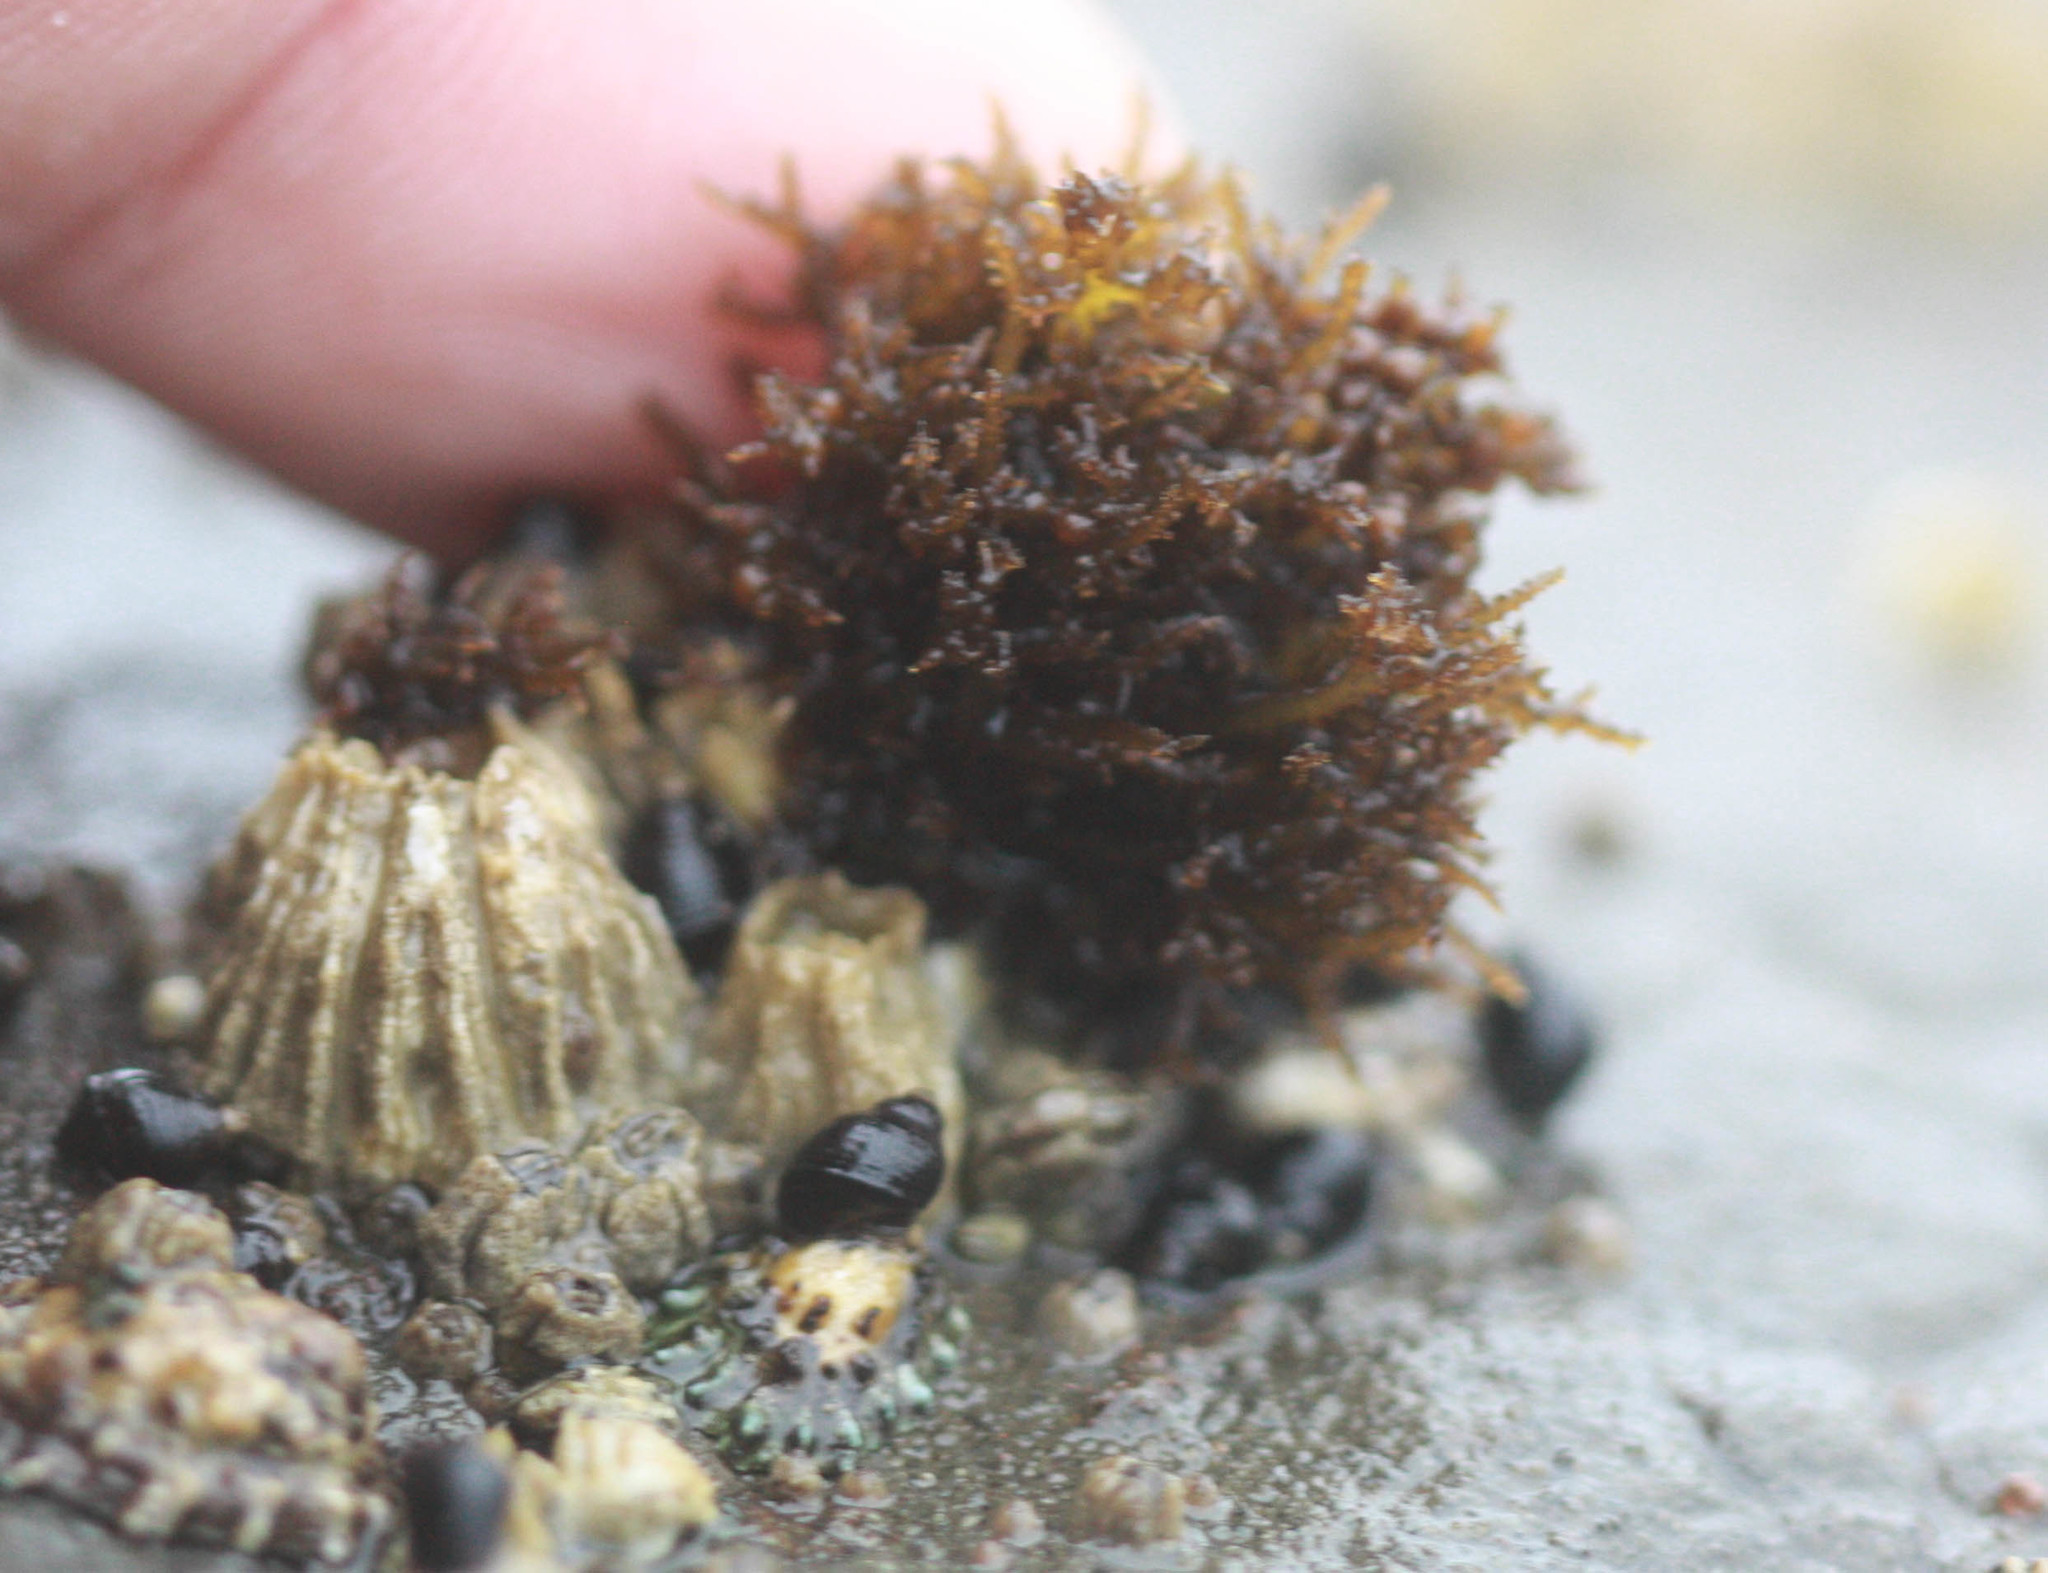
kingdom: Plantae
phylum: Rhodophyta
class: Florideophyceae
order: Gigartinales
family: Endocladiaceae
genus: Endocladia
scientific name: Endocladia muricata
